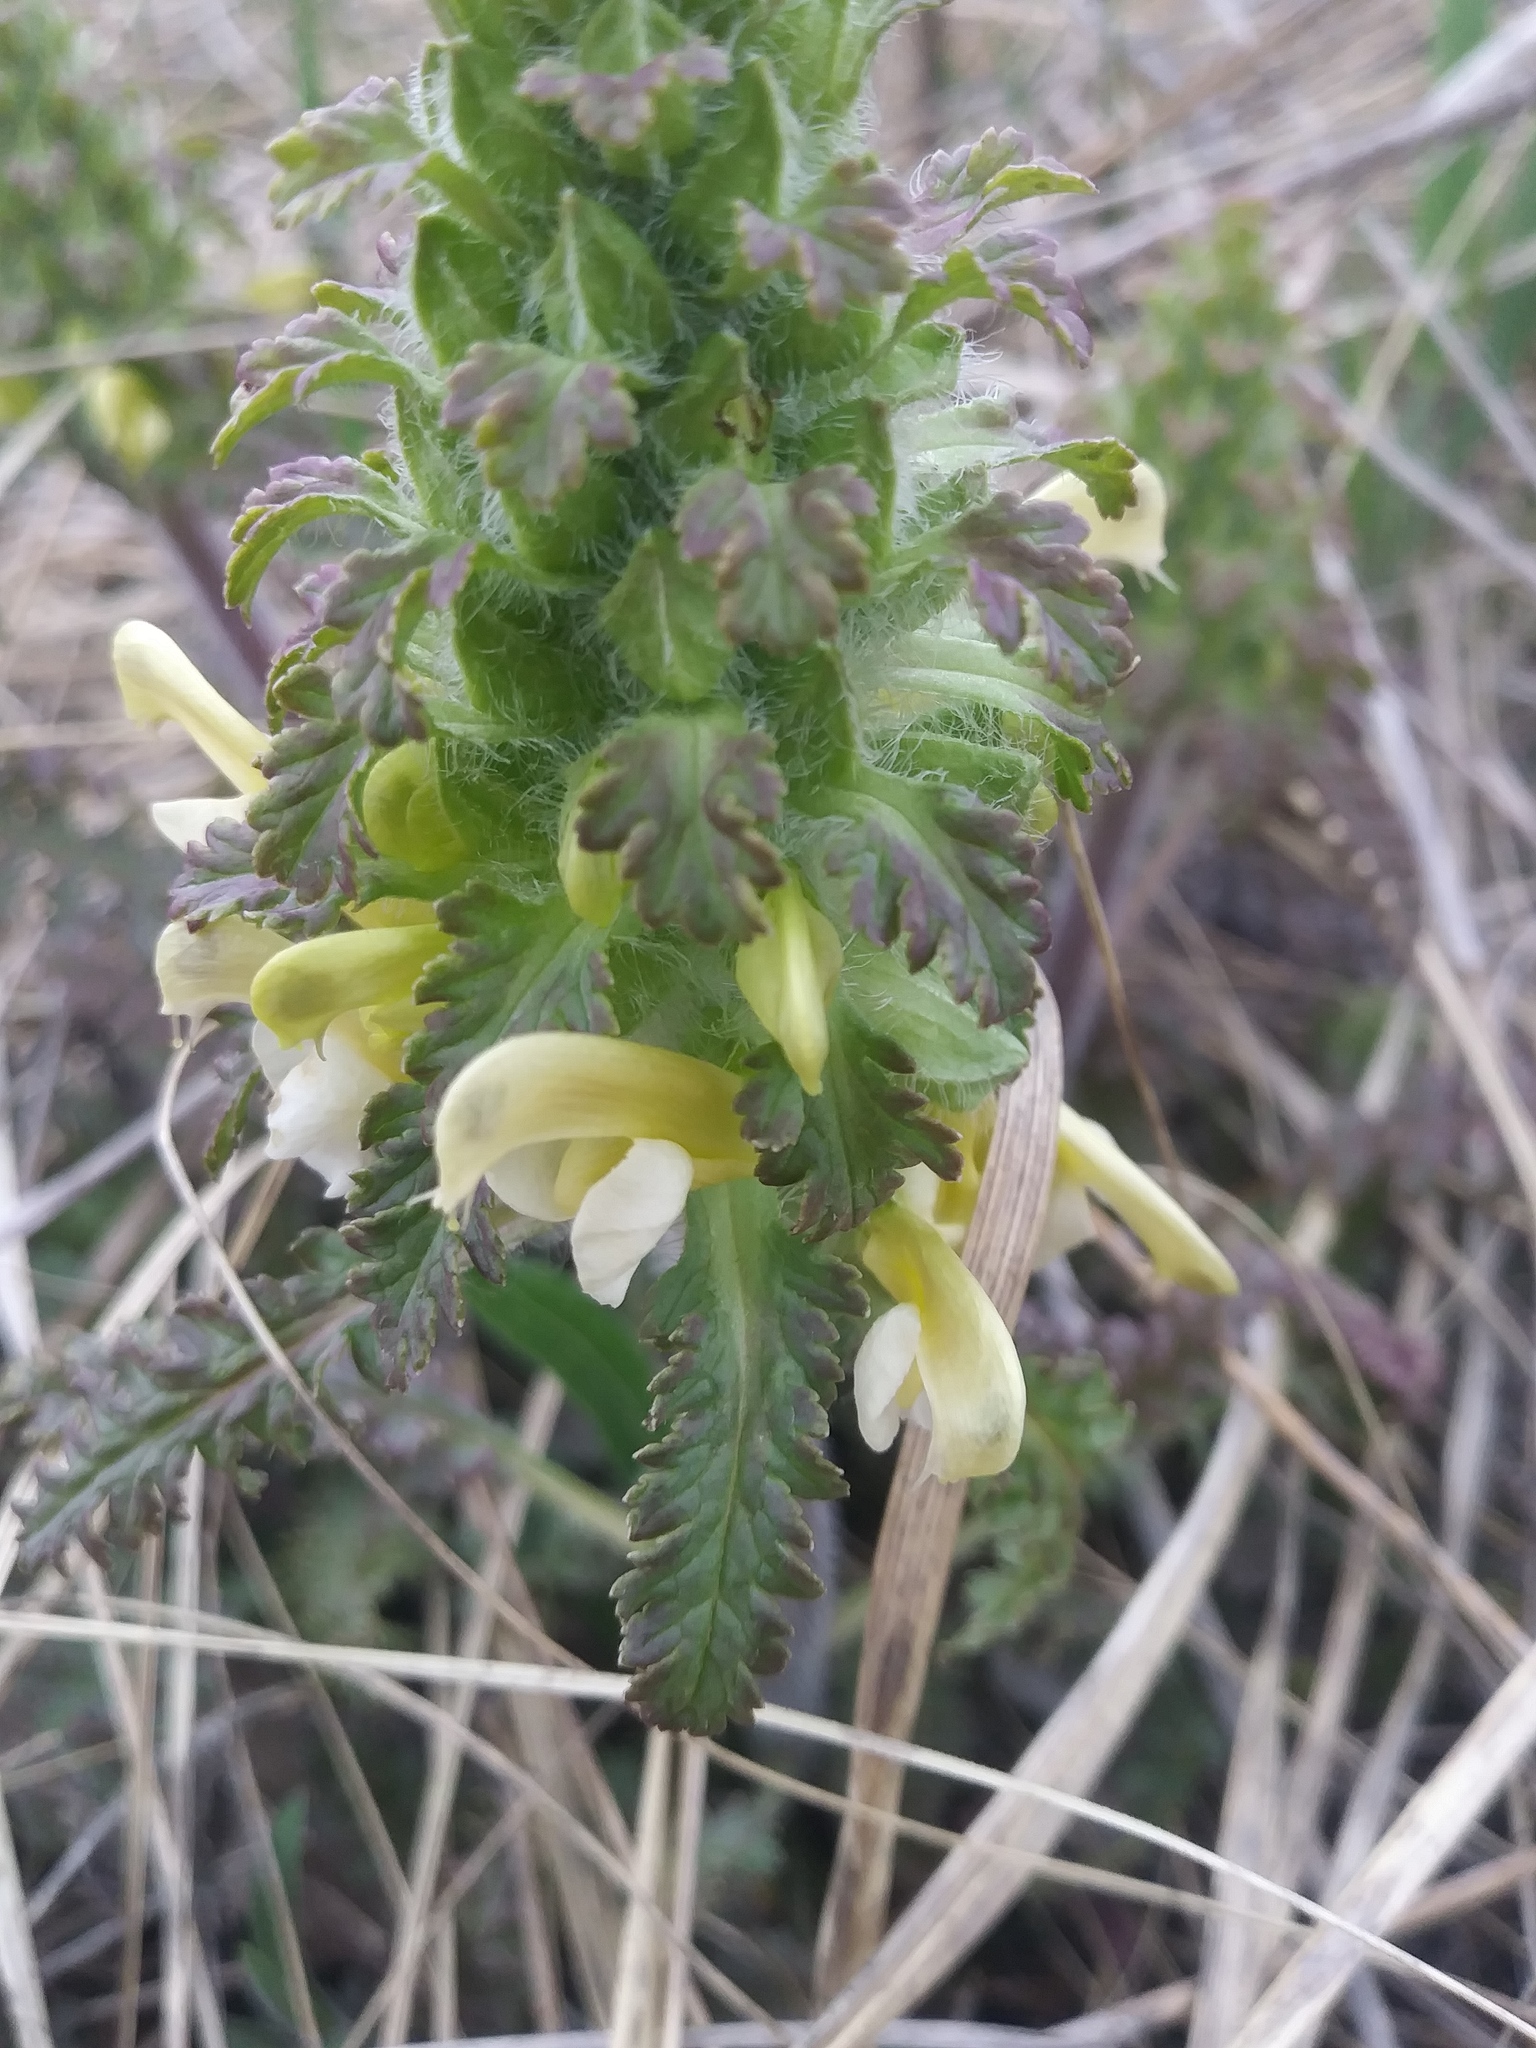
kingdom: Plantae
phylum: Tracheophyta
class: Magnoliopsida
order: Lamiales
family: Orobanchaceae
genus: Pedicularis
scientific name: Pedicularis canadensis
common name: Early lousewort
